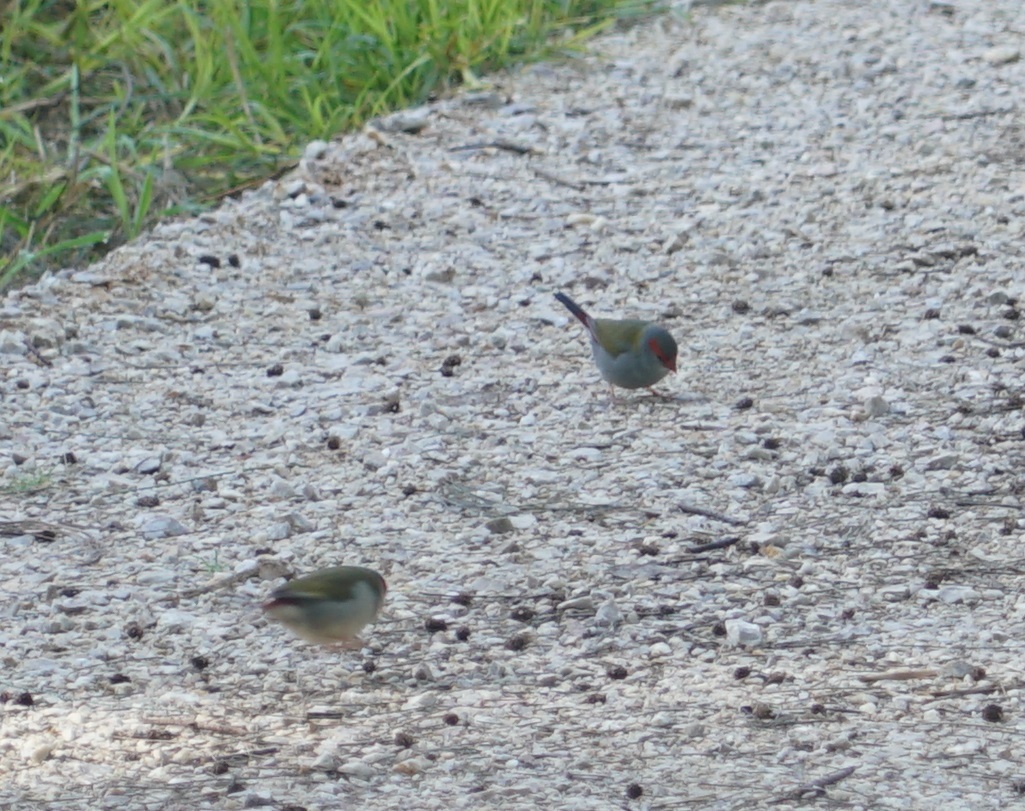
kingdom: Animalia
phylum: Chordata
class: Aves
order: Passeriformes
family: Estrildidae
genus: Neochmia
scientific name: Neochmia temporalis
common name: Red-browed finch
